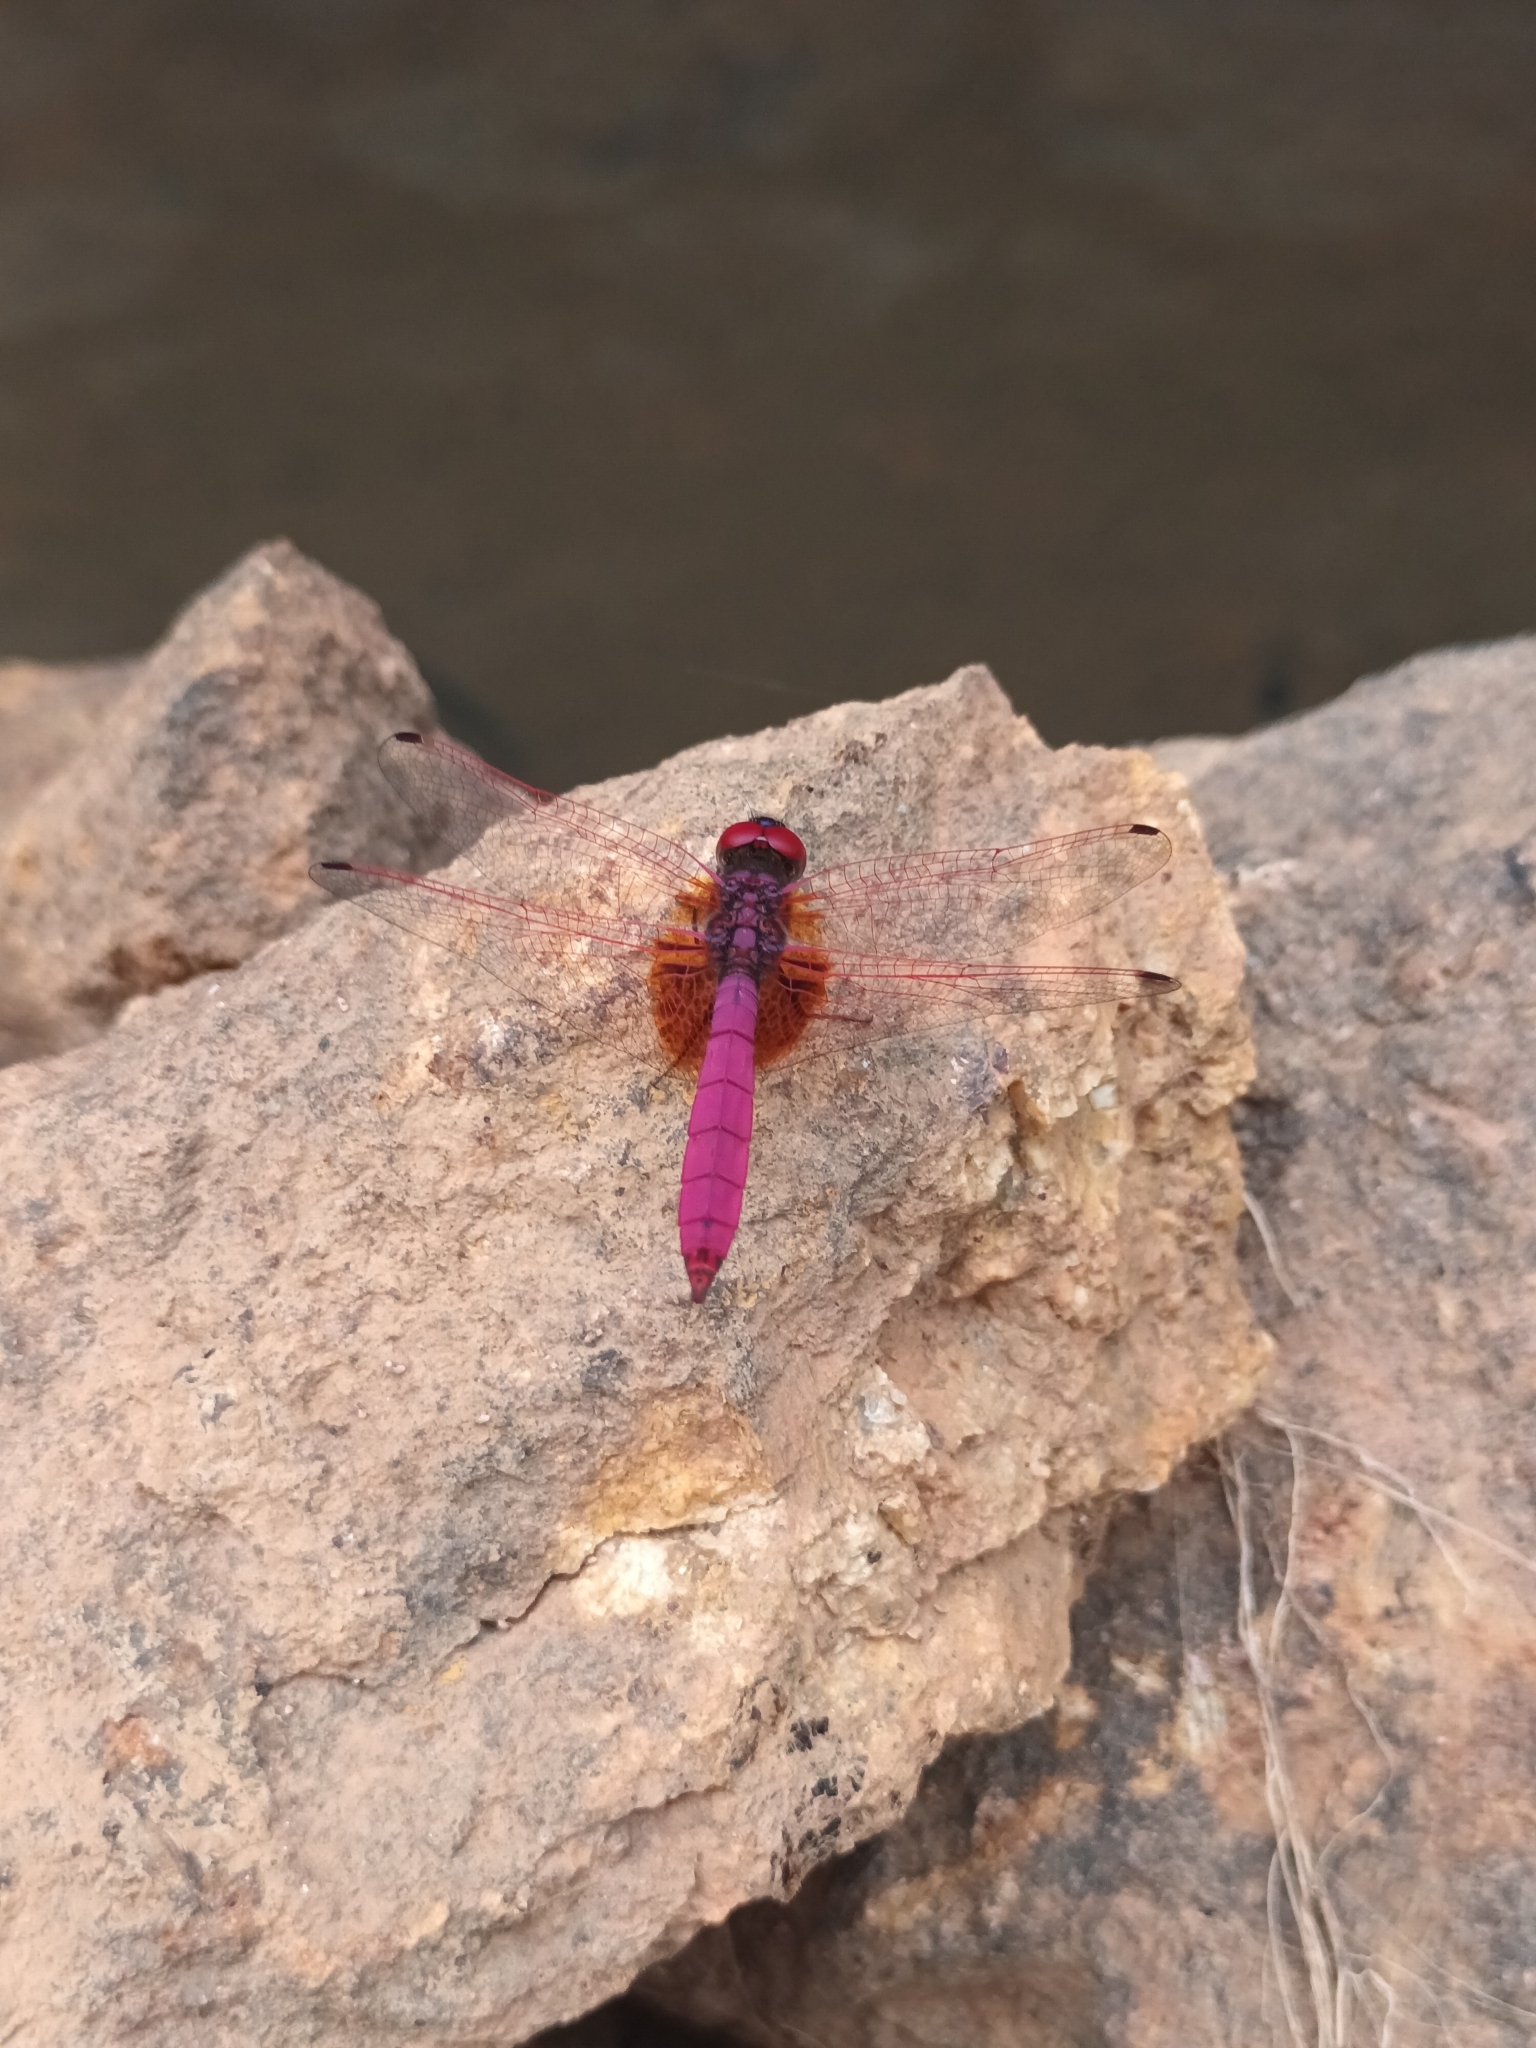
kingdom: Animalia
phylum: Arthropoda
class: Insecta
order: Odonata
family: Libellulidae
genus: Trithemis
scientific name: Trithemis aurora
